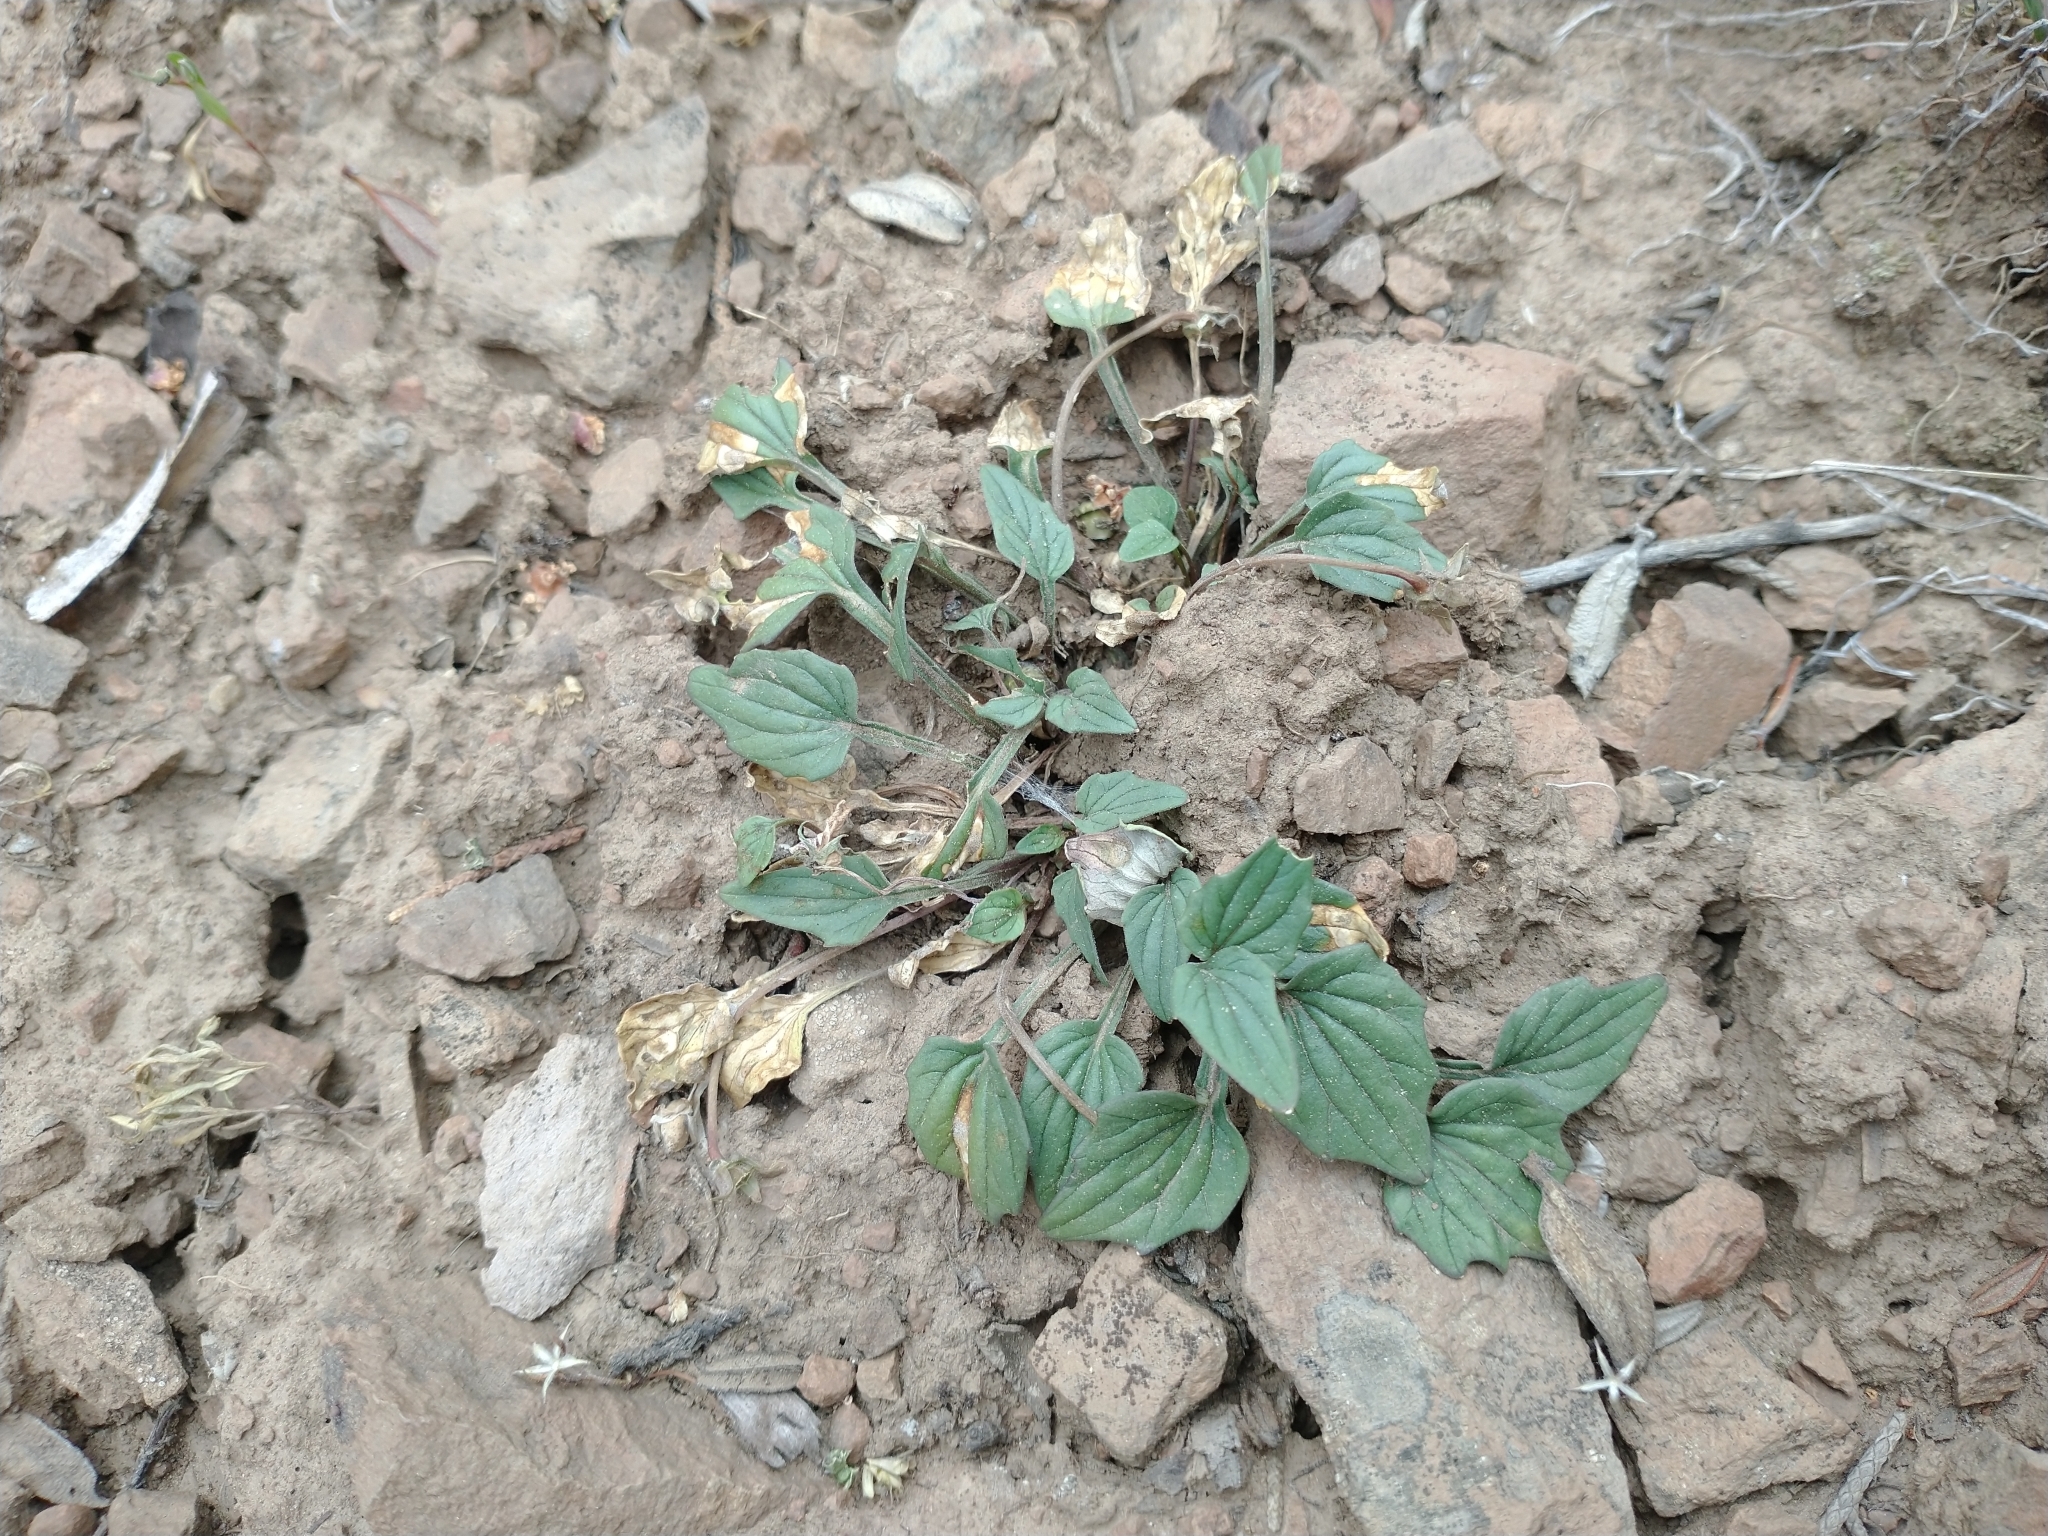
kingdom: Plantae
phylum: Tracheophyta
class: Magnoliopsida
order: Malpighiales
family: Violaceae
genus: Viola
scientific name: Viola purpurea
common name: Pine violet
